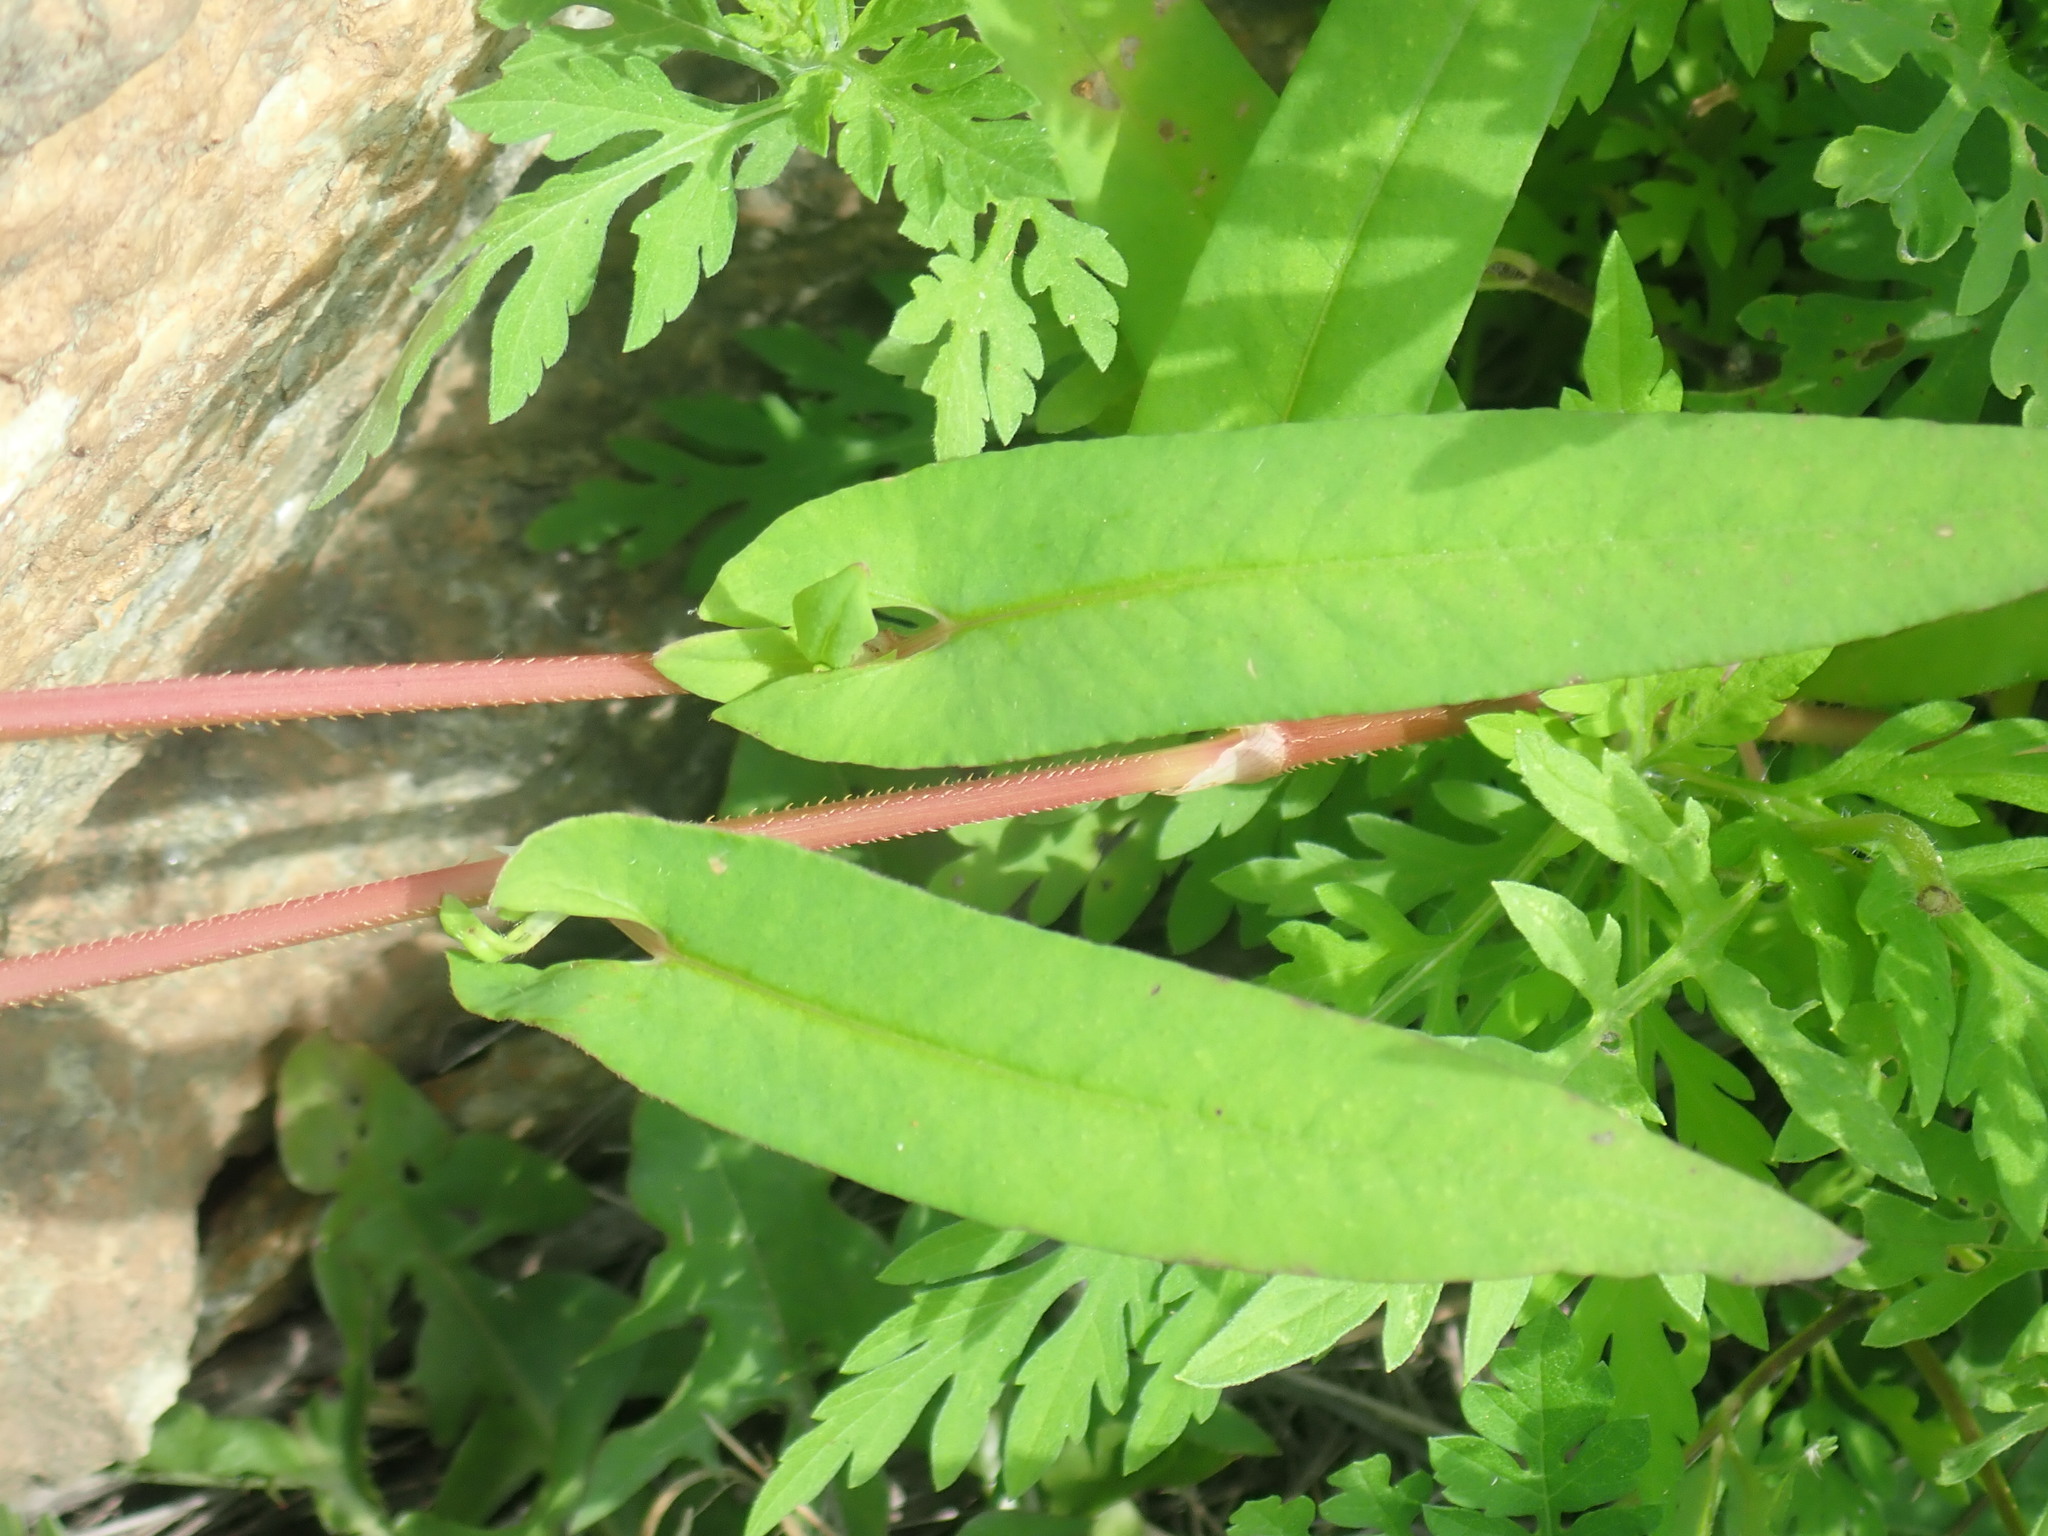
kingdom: Plantae
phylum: Tracheophyta
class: Magnoliopsida
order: Caryophyllales
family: Polygonaceae
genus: Persicaria
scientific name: Persicaria sagittata
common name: American tearthumb
